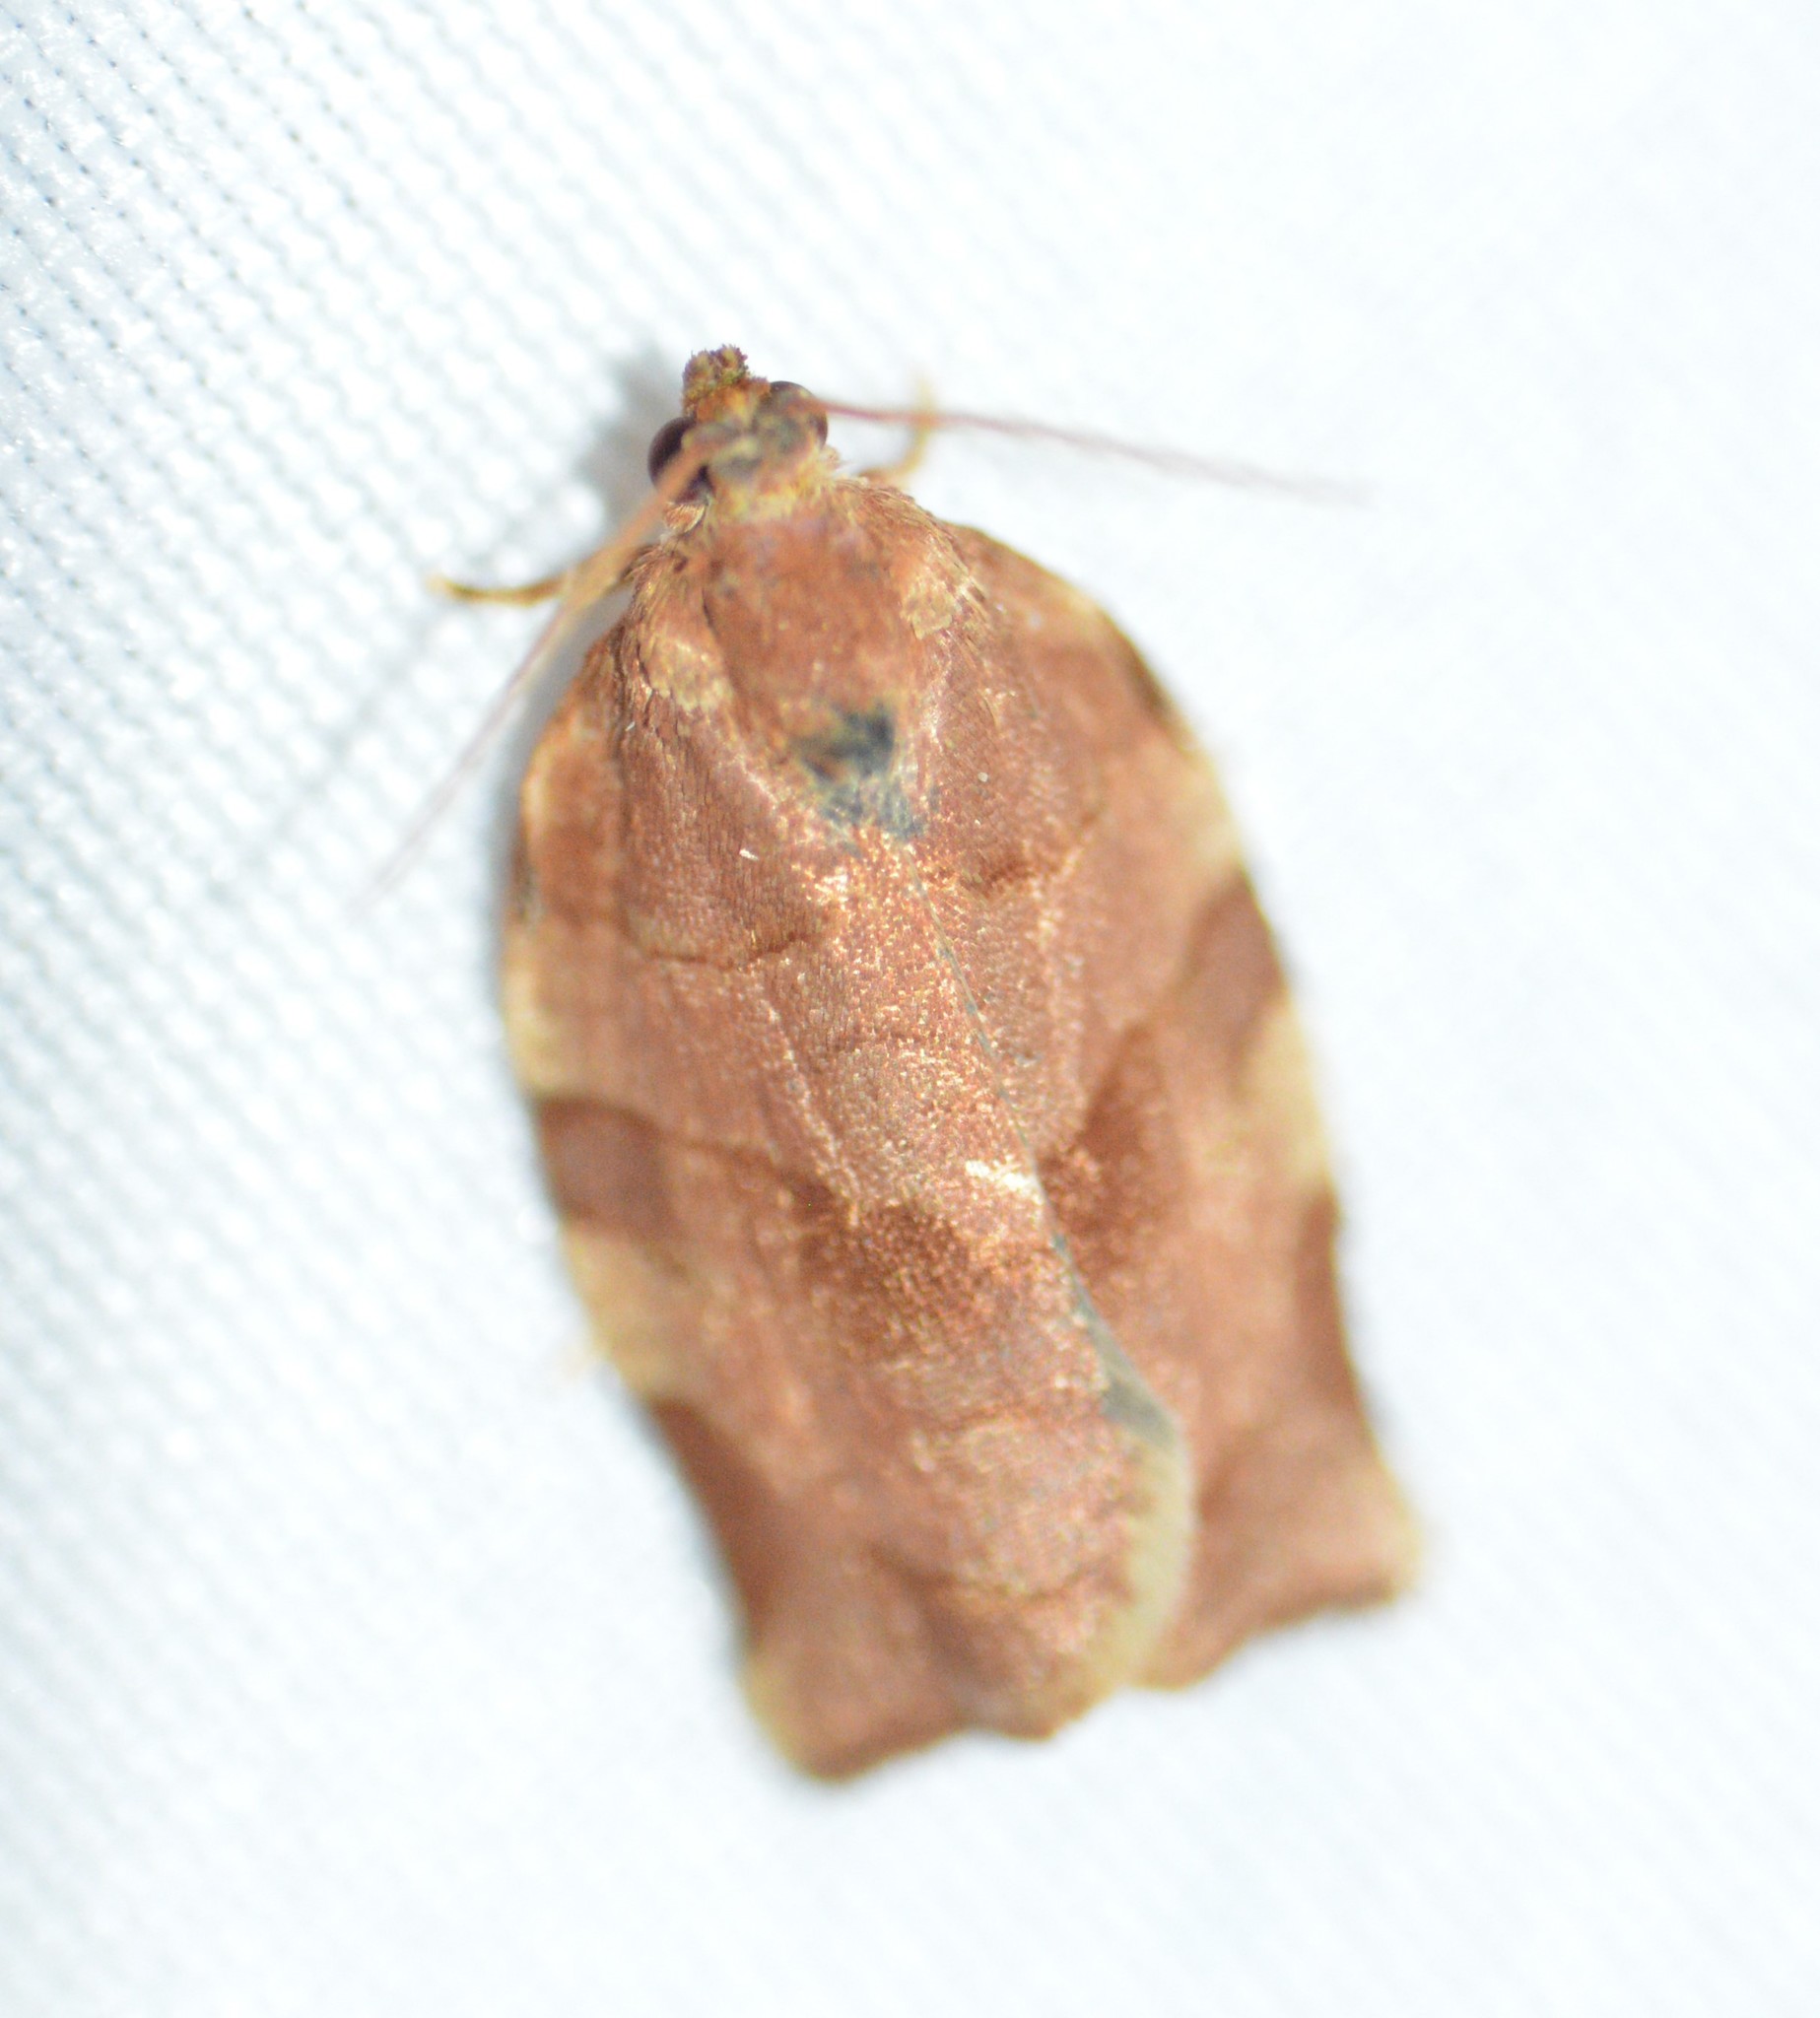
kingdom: Animalia
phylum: Arthropoda
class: Insecta
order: Lepidoptera
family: Tortricidae
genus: Choristoneura
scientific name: Choristoneura rosaceana
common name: Oblique-banded leafroller moth
